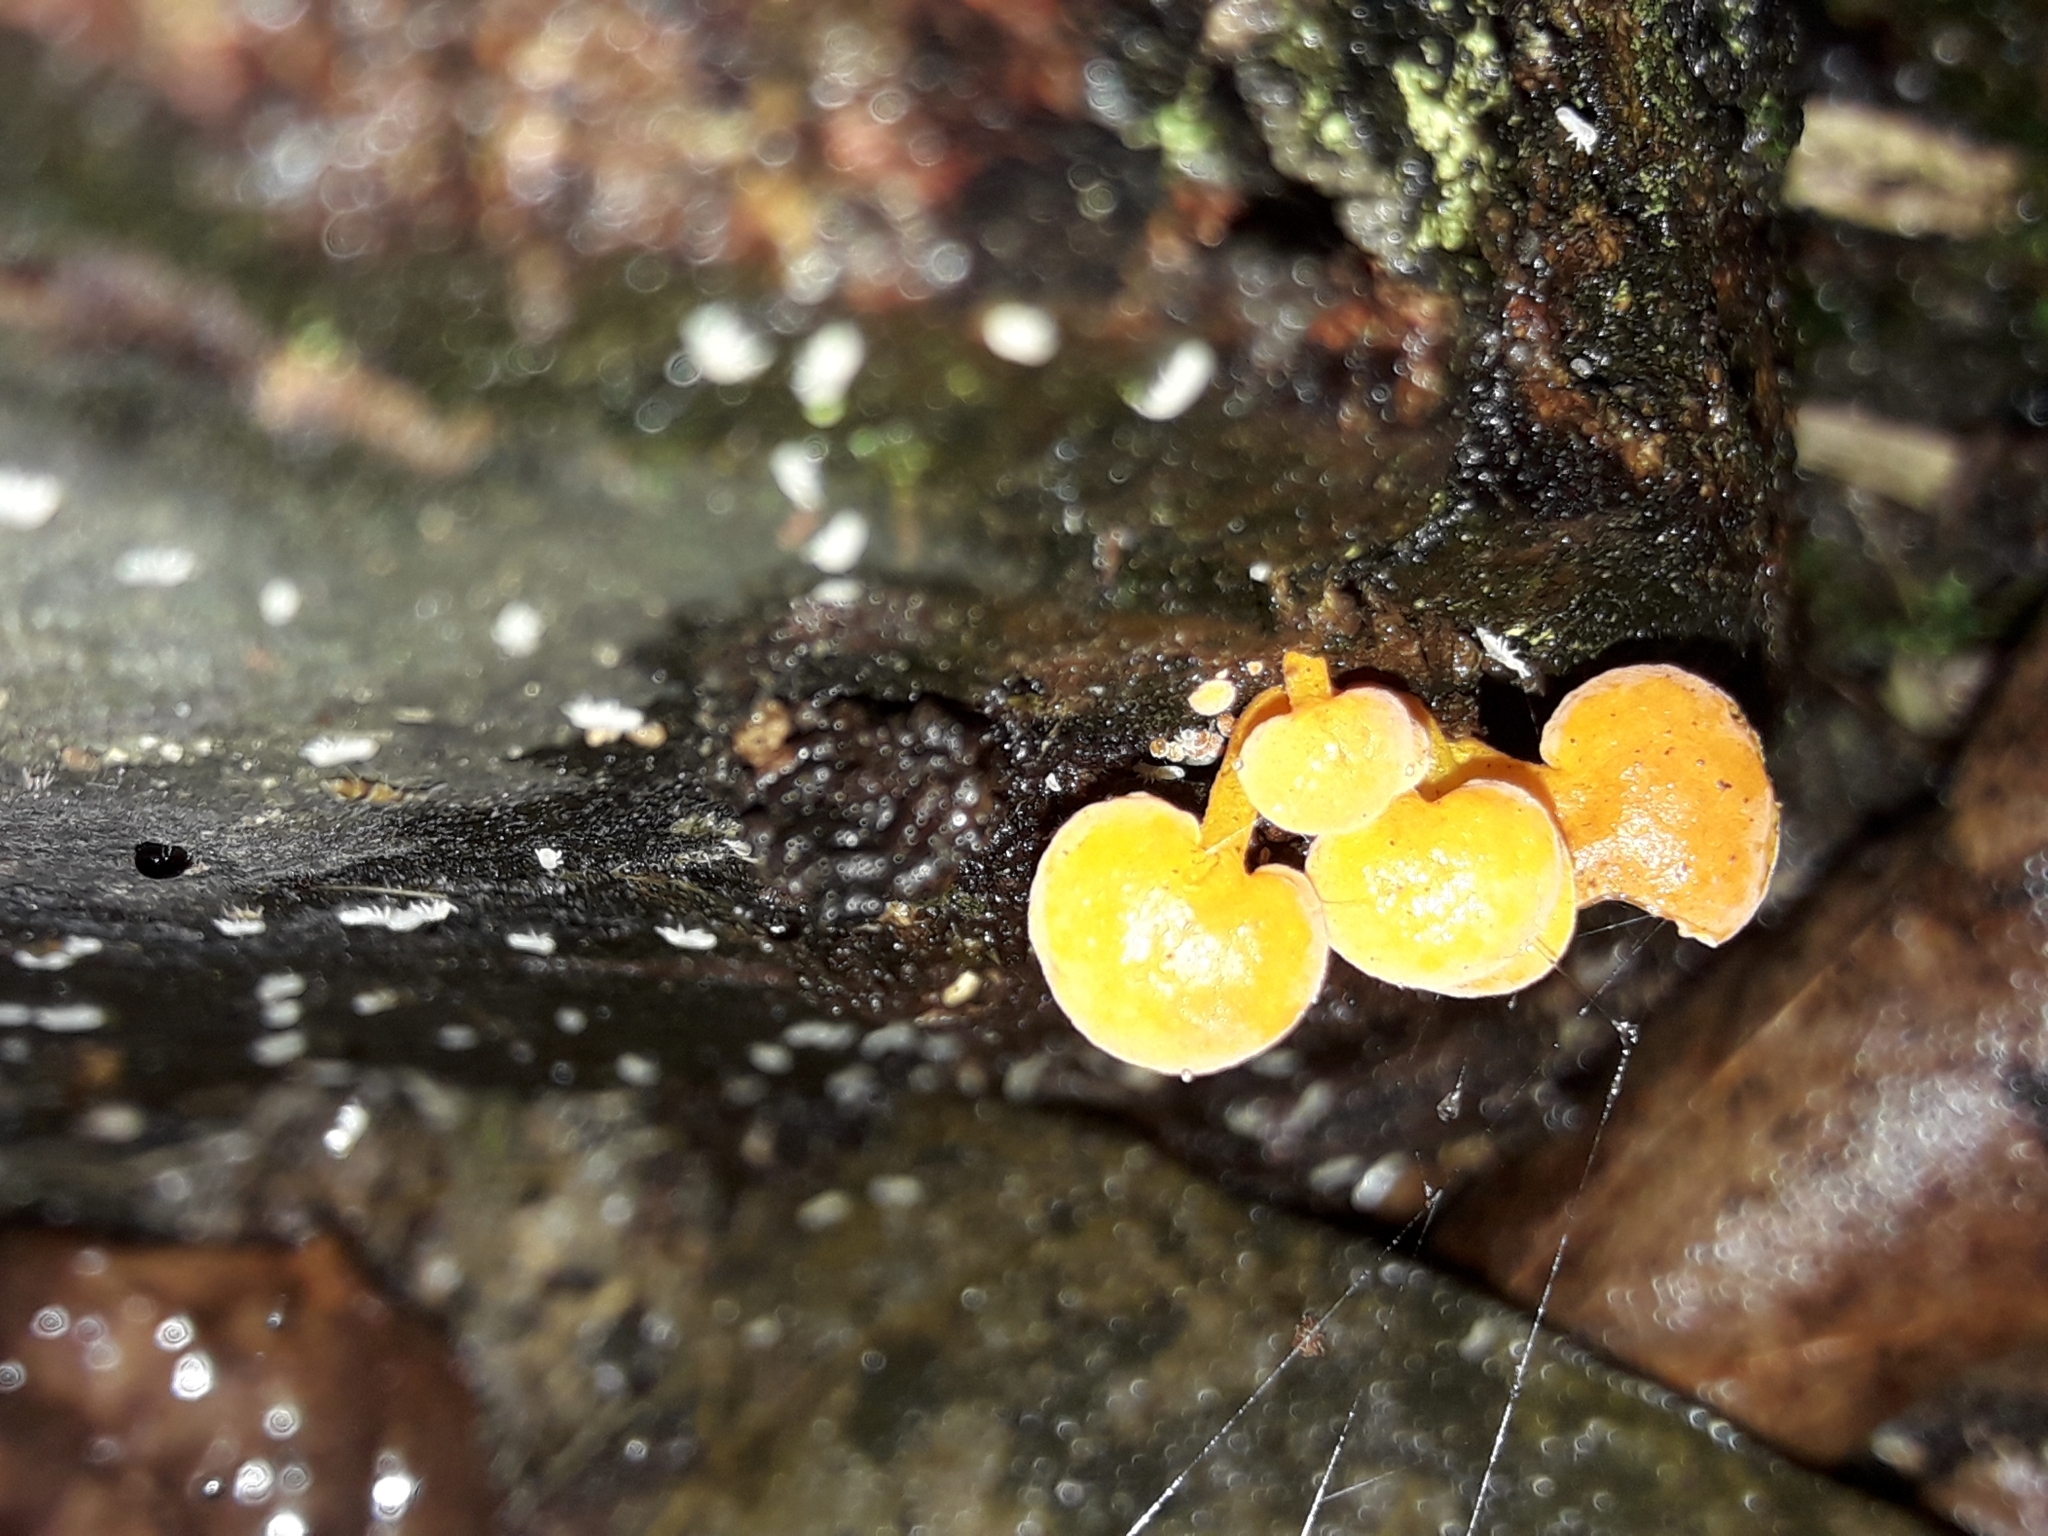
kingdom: Fungi
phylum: Basidiomycota
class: Agaricomycetes
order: Agaricales
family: Mycenaceae
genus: Favolaschia
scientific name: Favolaschia claudopus
